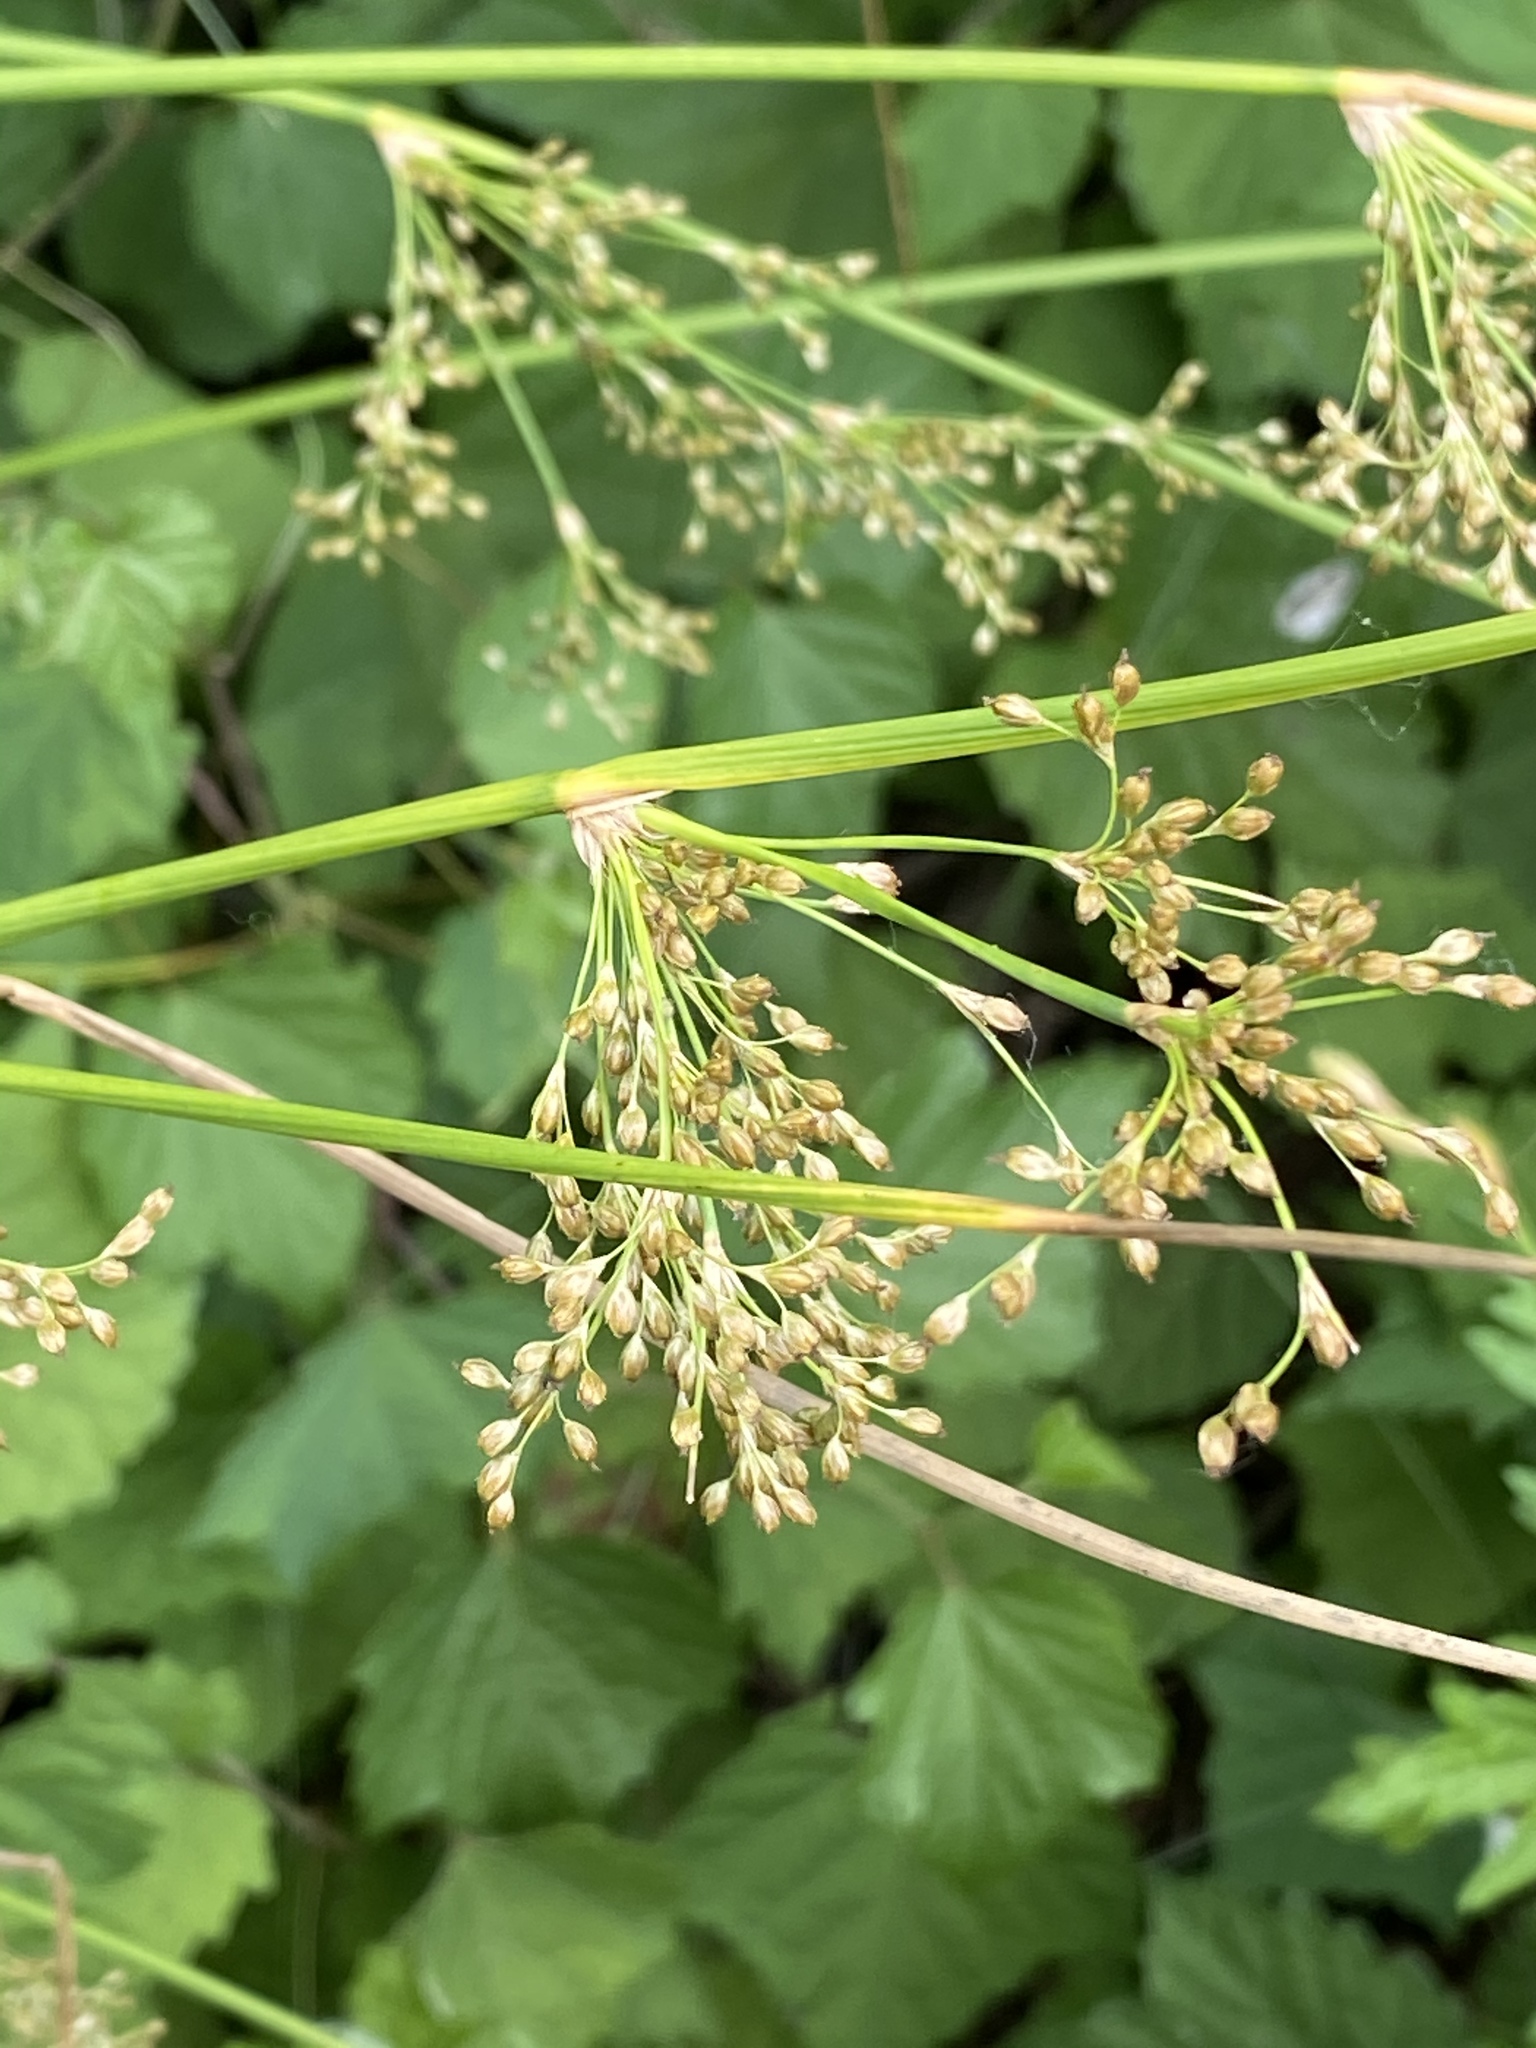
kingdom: Plantae
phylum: Tracheophyta
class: Liliopsida
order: Poales
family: Juncaceae
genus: Juncus
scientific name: Juncus effusus
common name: Soft rush
